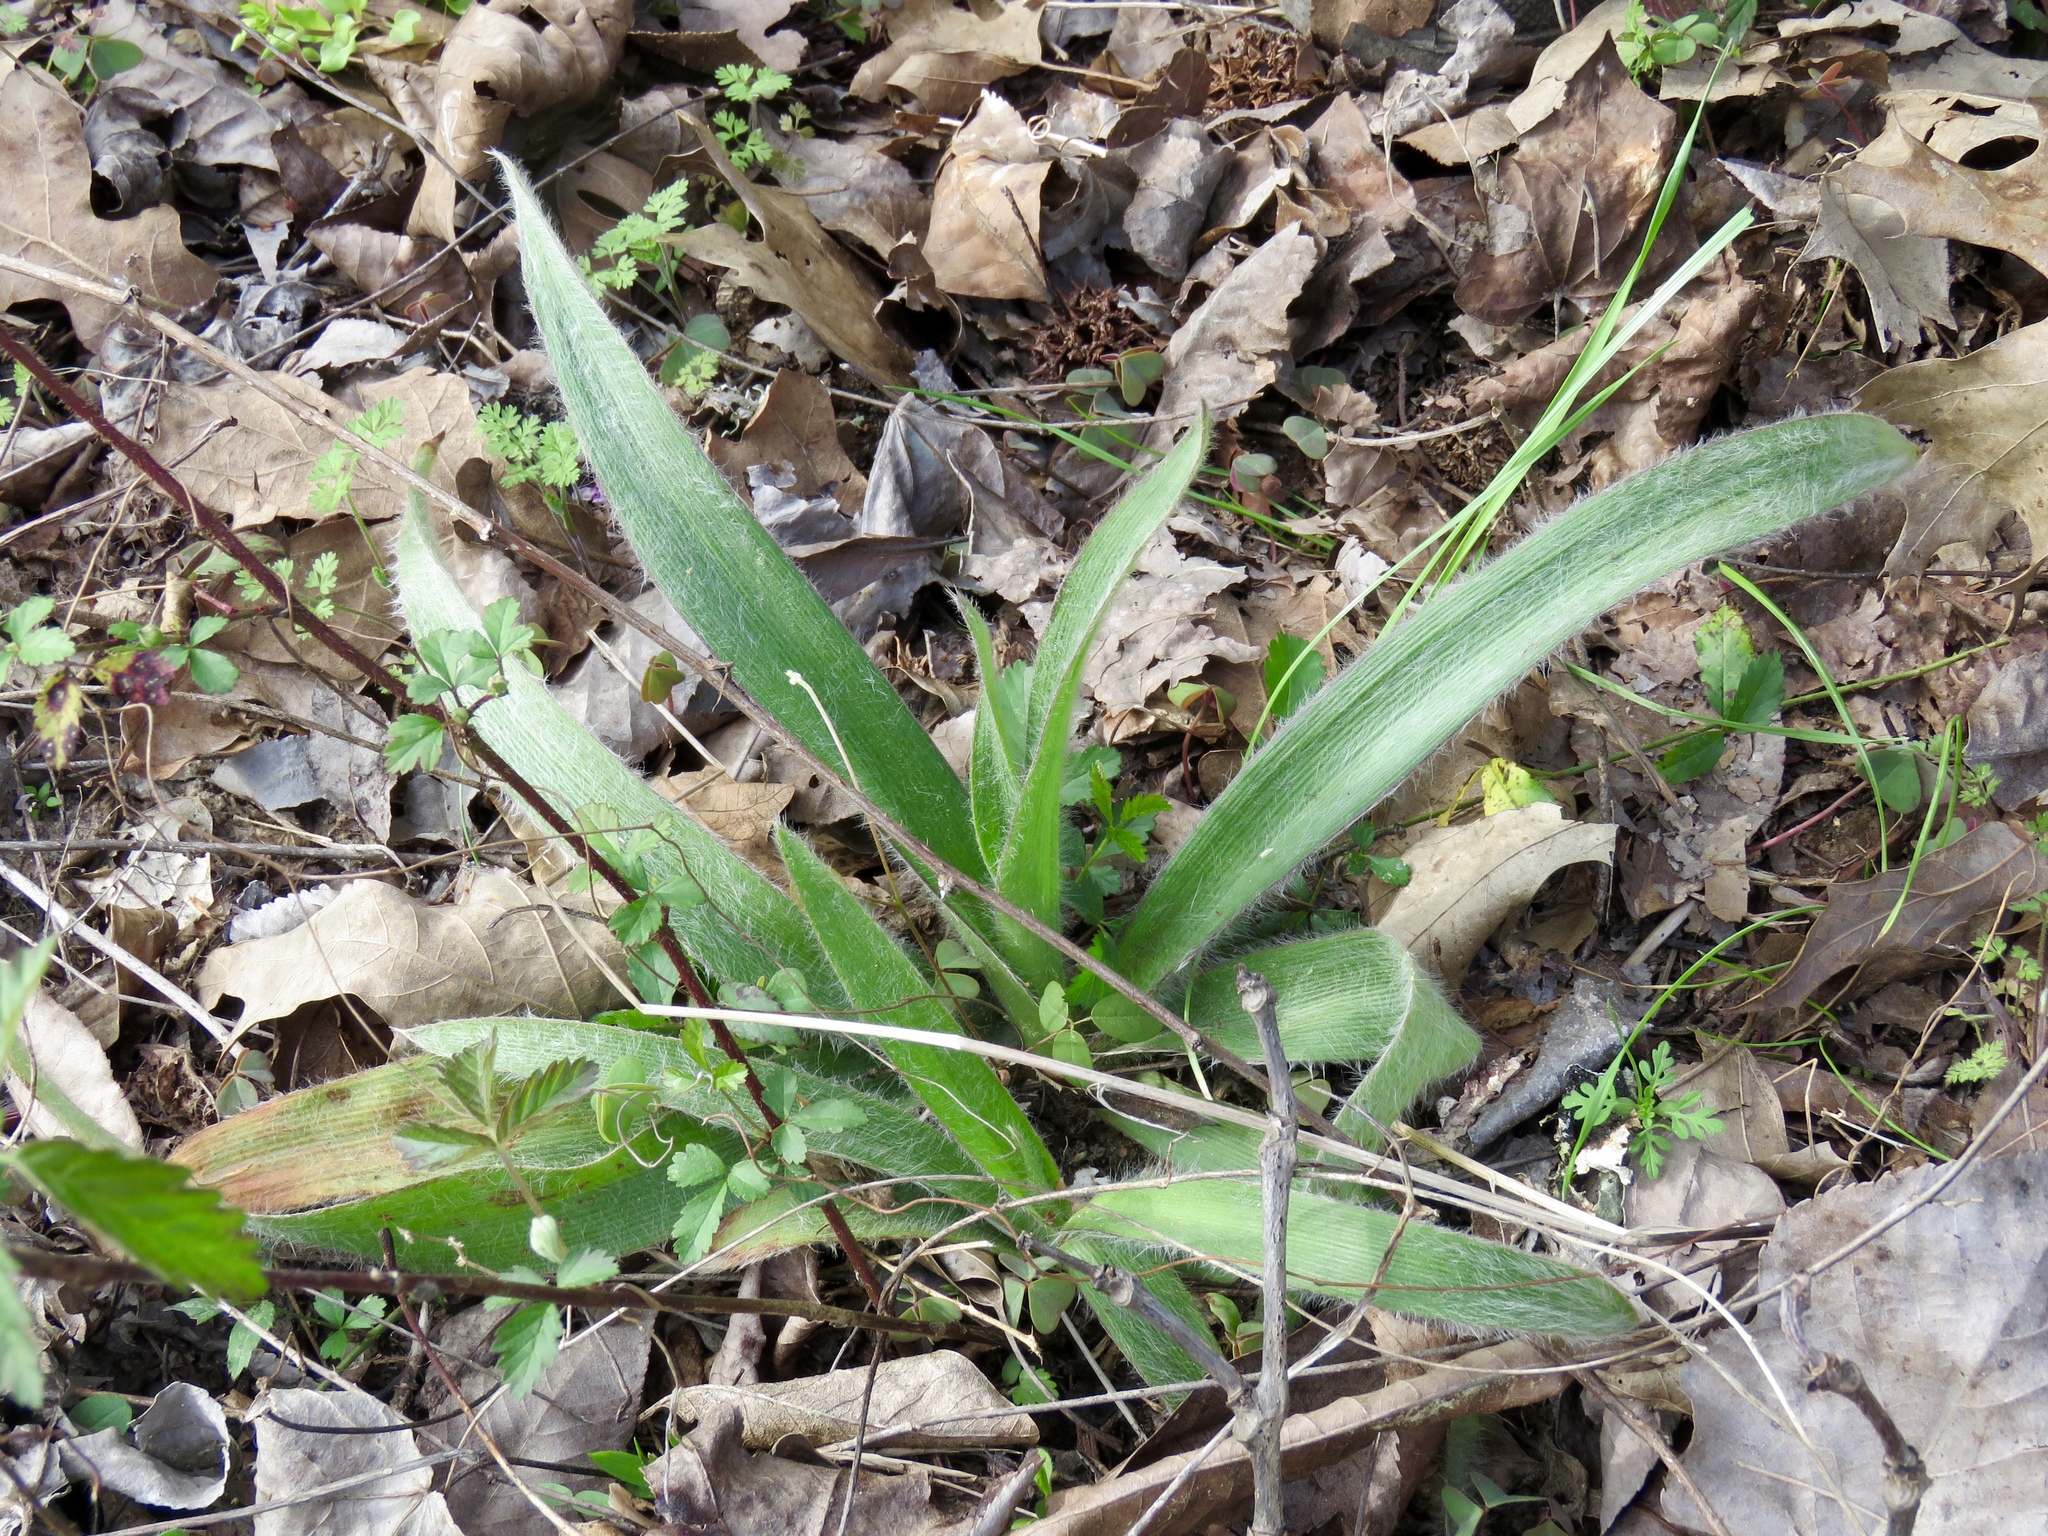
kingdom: Plantae
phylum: Tracheophyta
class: Liliopsida
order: Commelinales
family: Commelinaceae
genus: Tradescantia
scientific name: Tradescantia hirsutiflora
